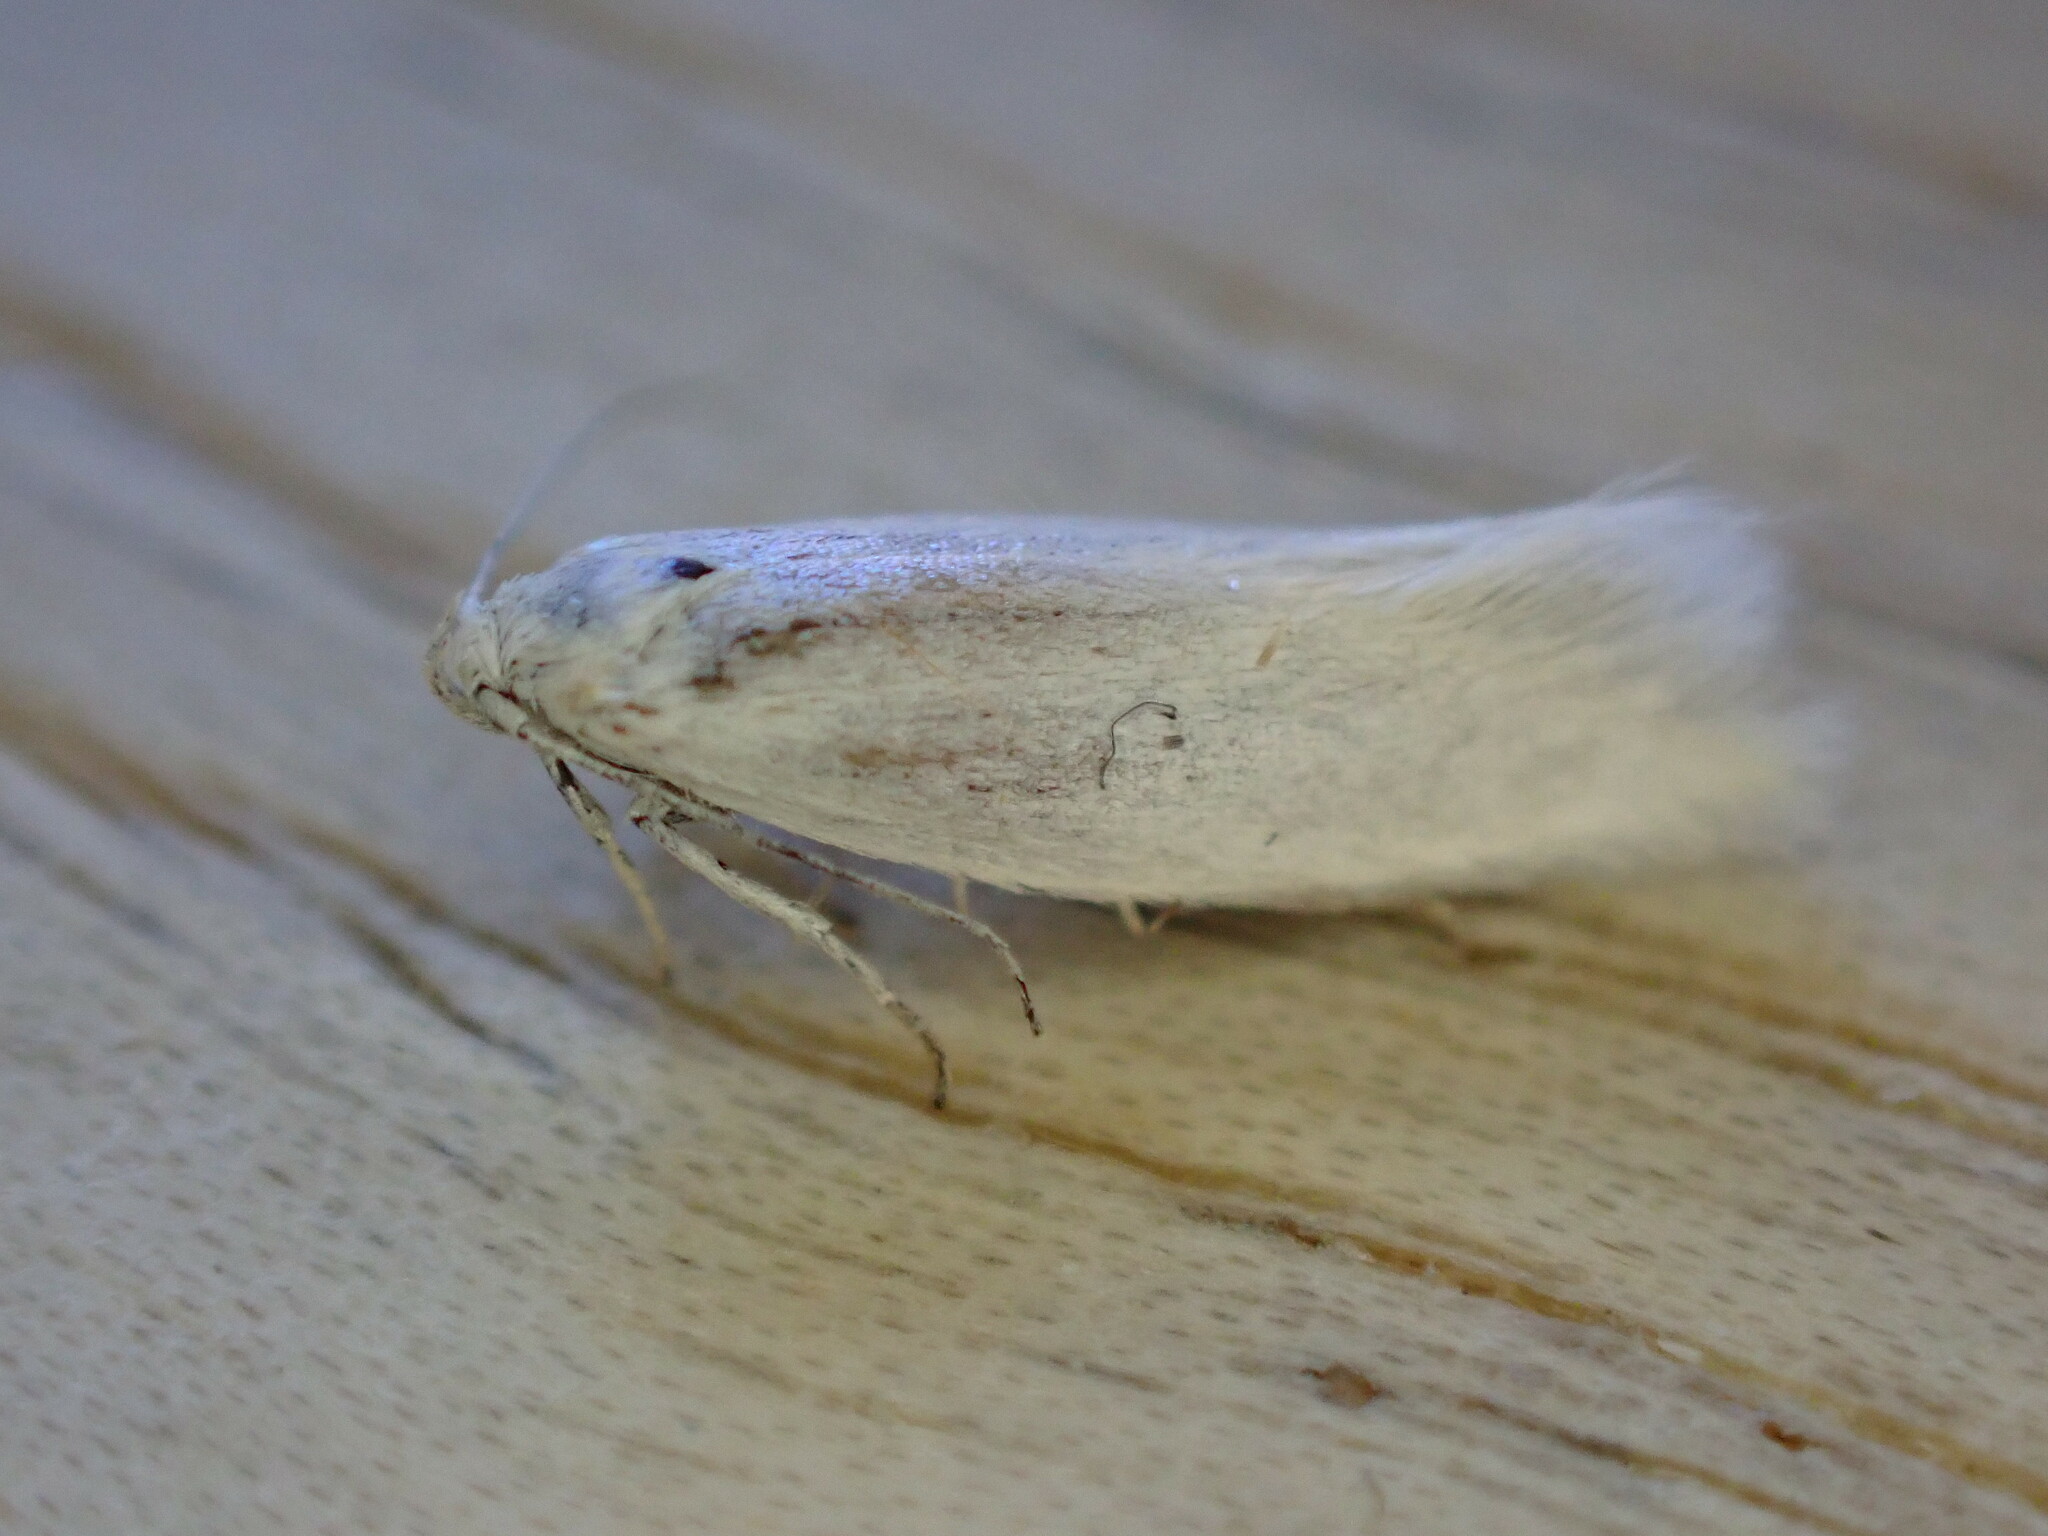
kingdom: Animalia
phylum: Arthropoda
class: Insecta
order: Lepidoptera
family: Elachistidae
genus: Elachista
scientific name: Elachista argentella
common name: Swan-feather dwarf
